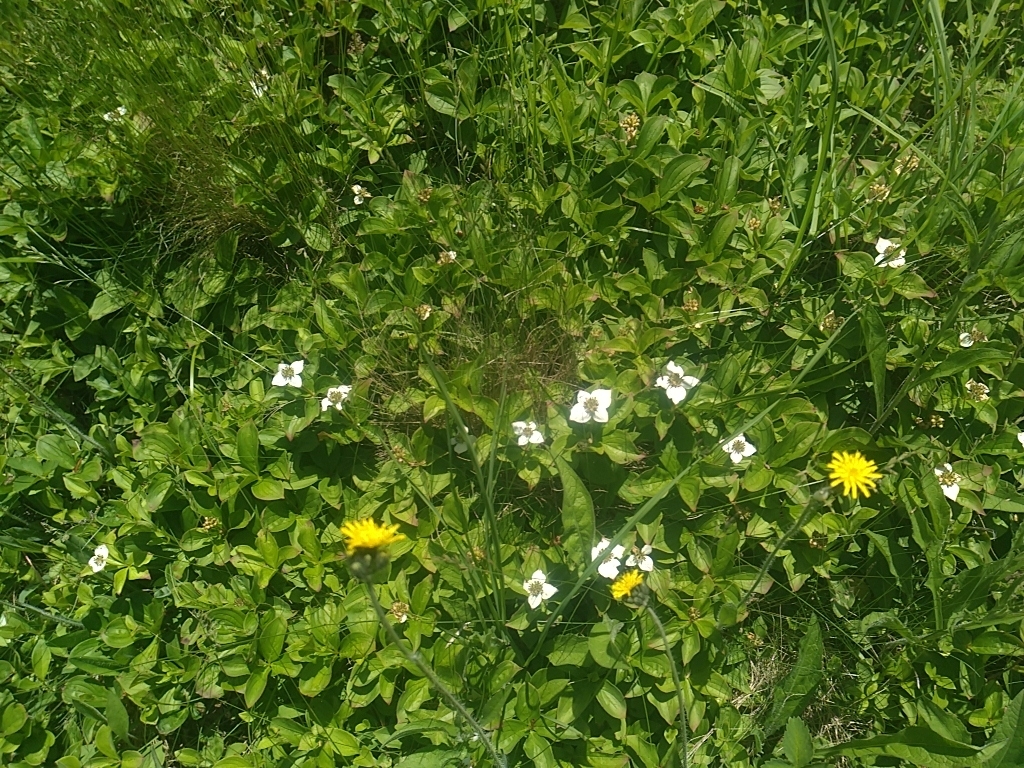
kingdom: Plantae
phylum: Tracheophyta
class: Magnoliopsida
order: Cornales
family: Cornaceae
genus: Cornus
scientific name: Cornus canadensis
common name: Creeping dogwood
